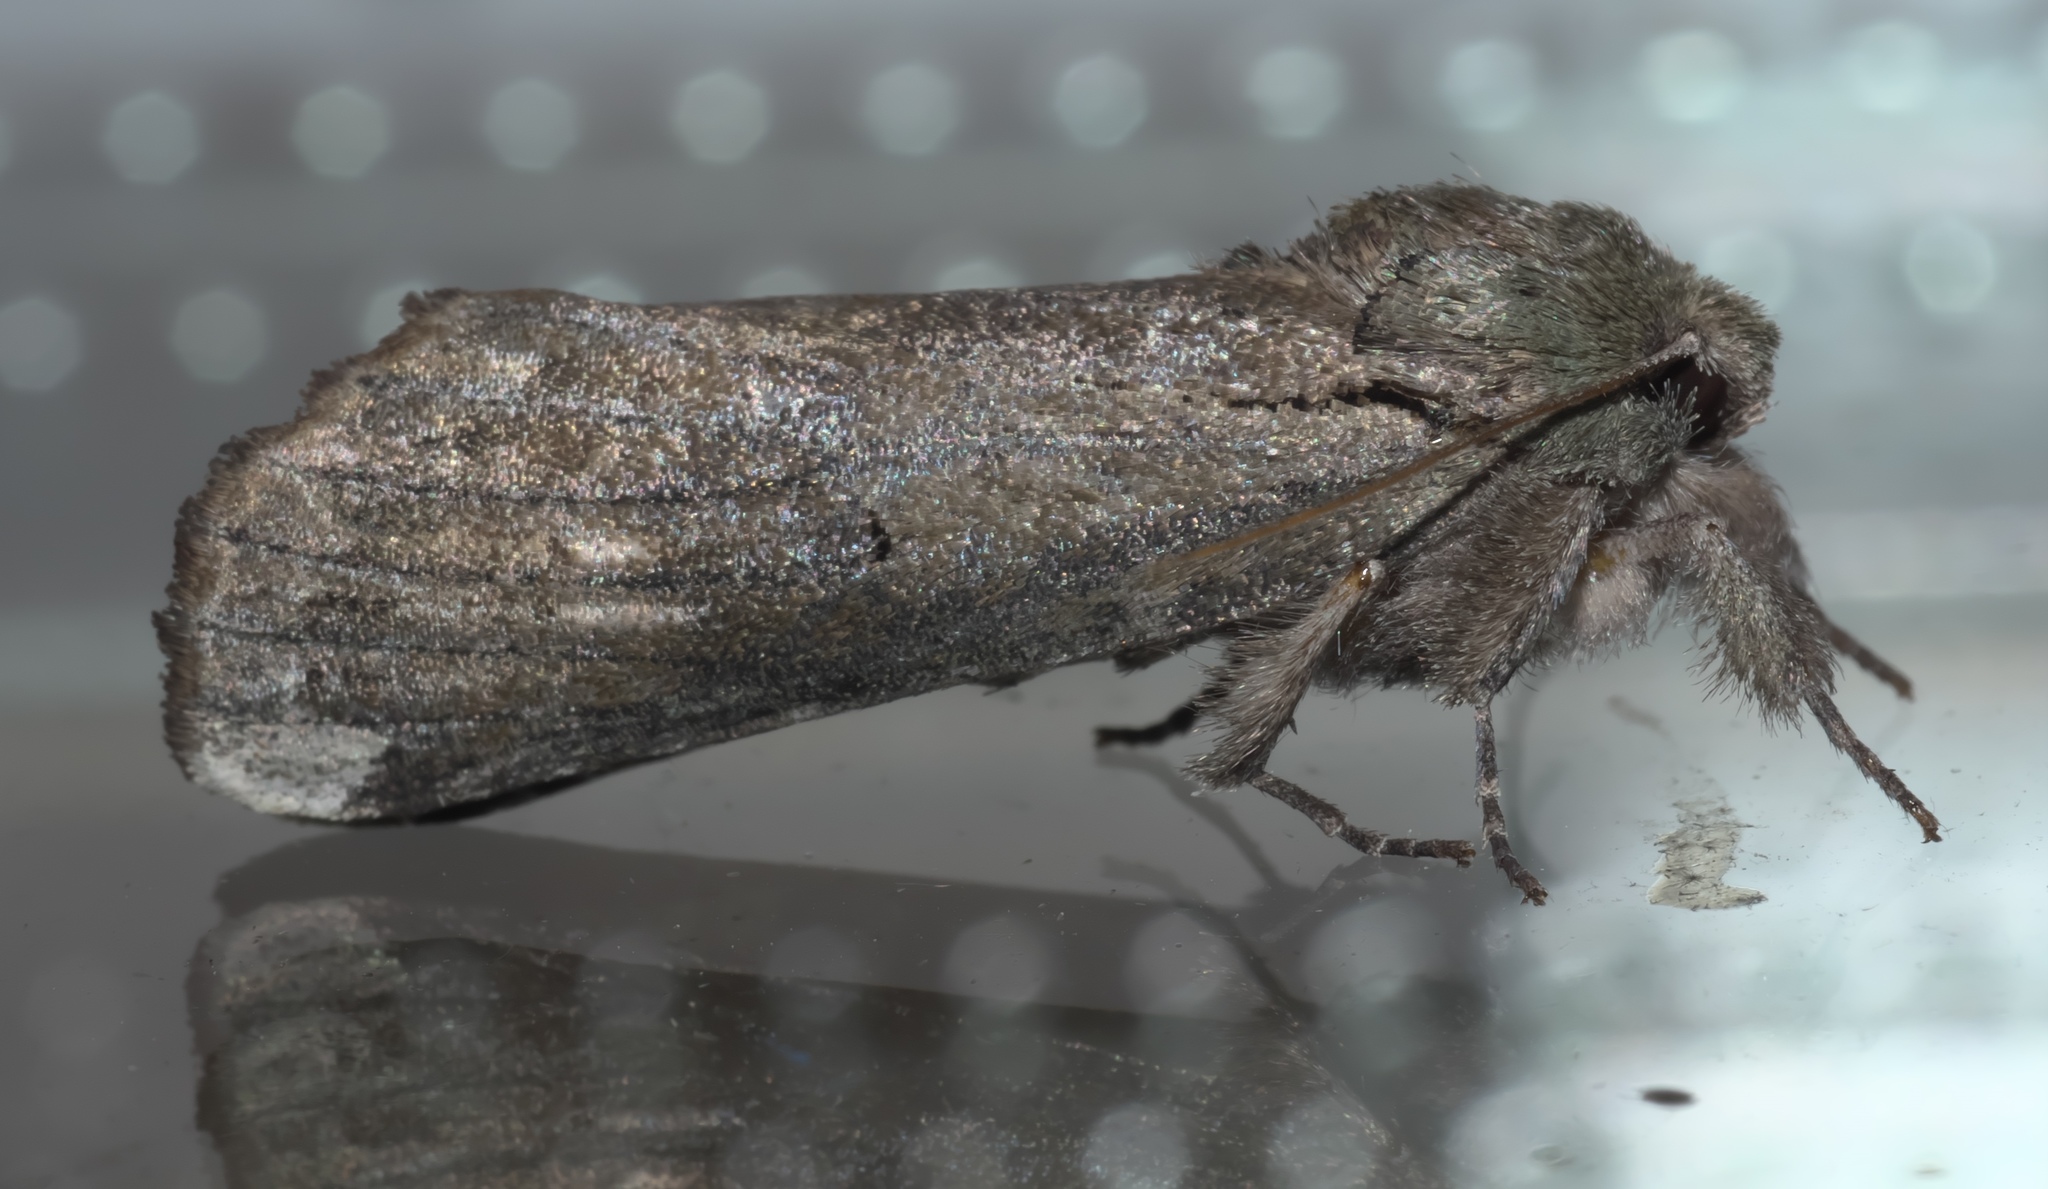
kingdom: Animalia
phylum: Arthropoda
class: Insecta
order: Lepidoptera
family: Notodontidae
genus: Schizura
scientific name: Schizura
